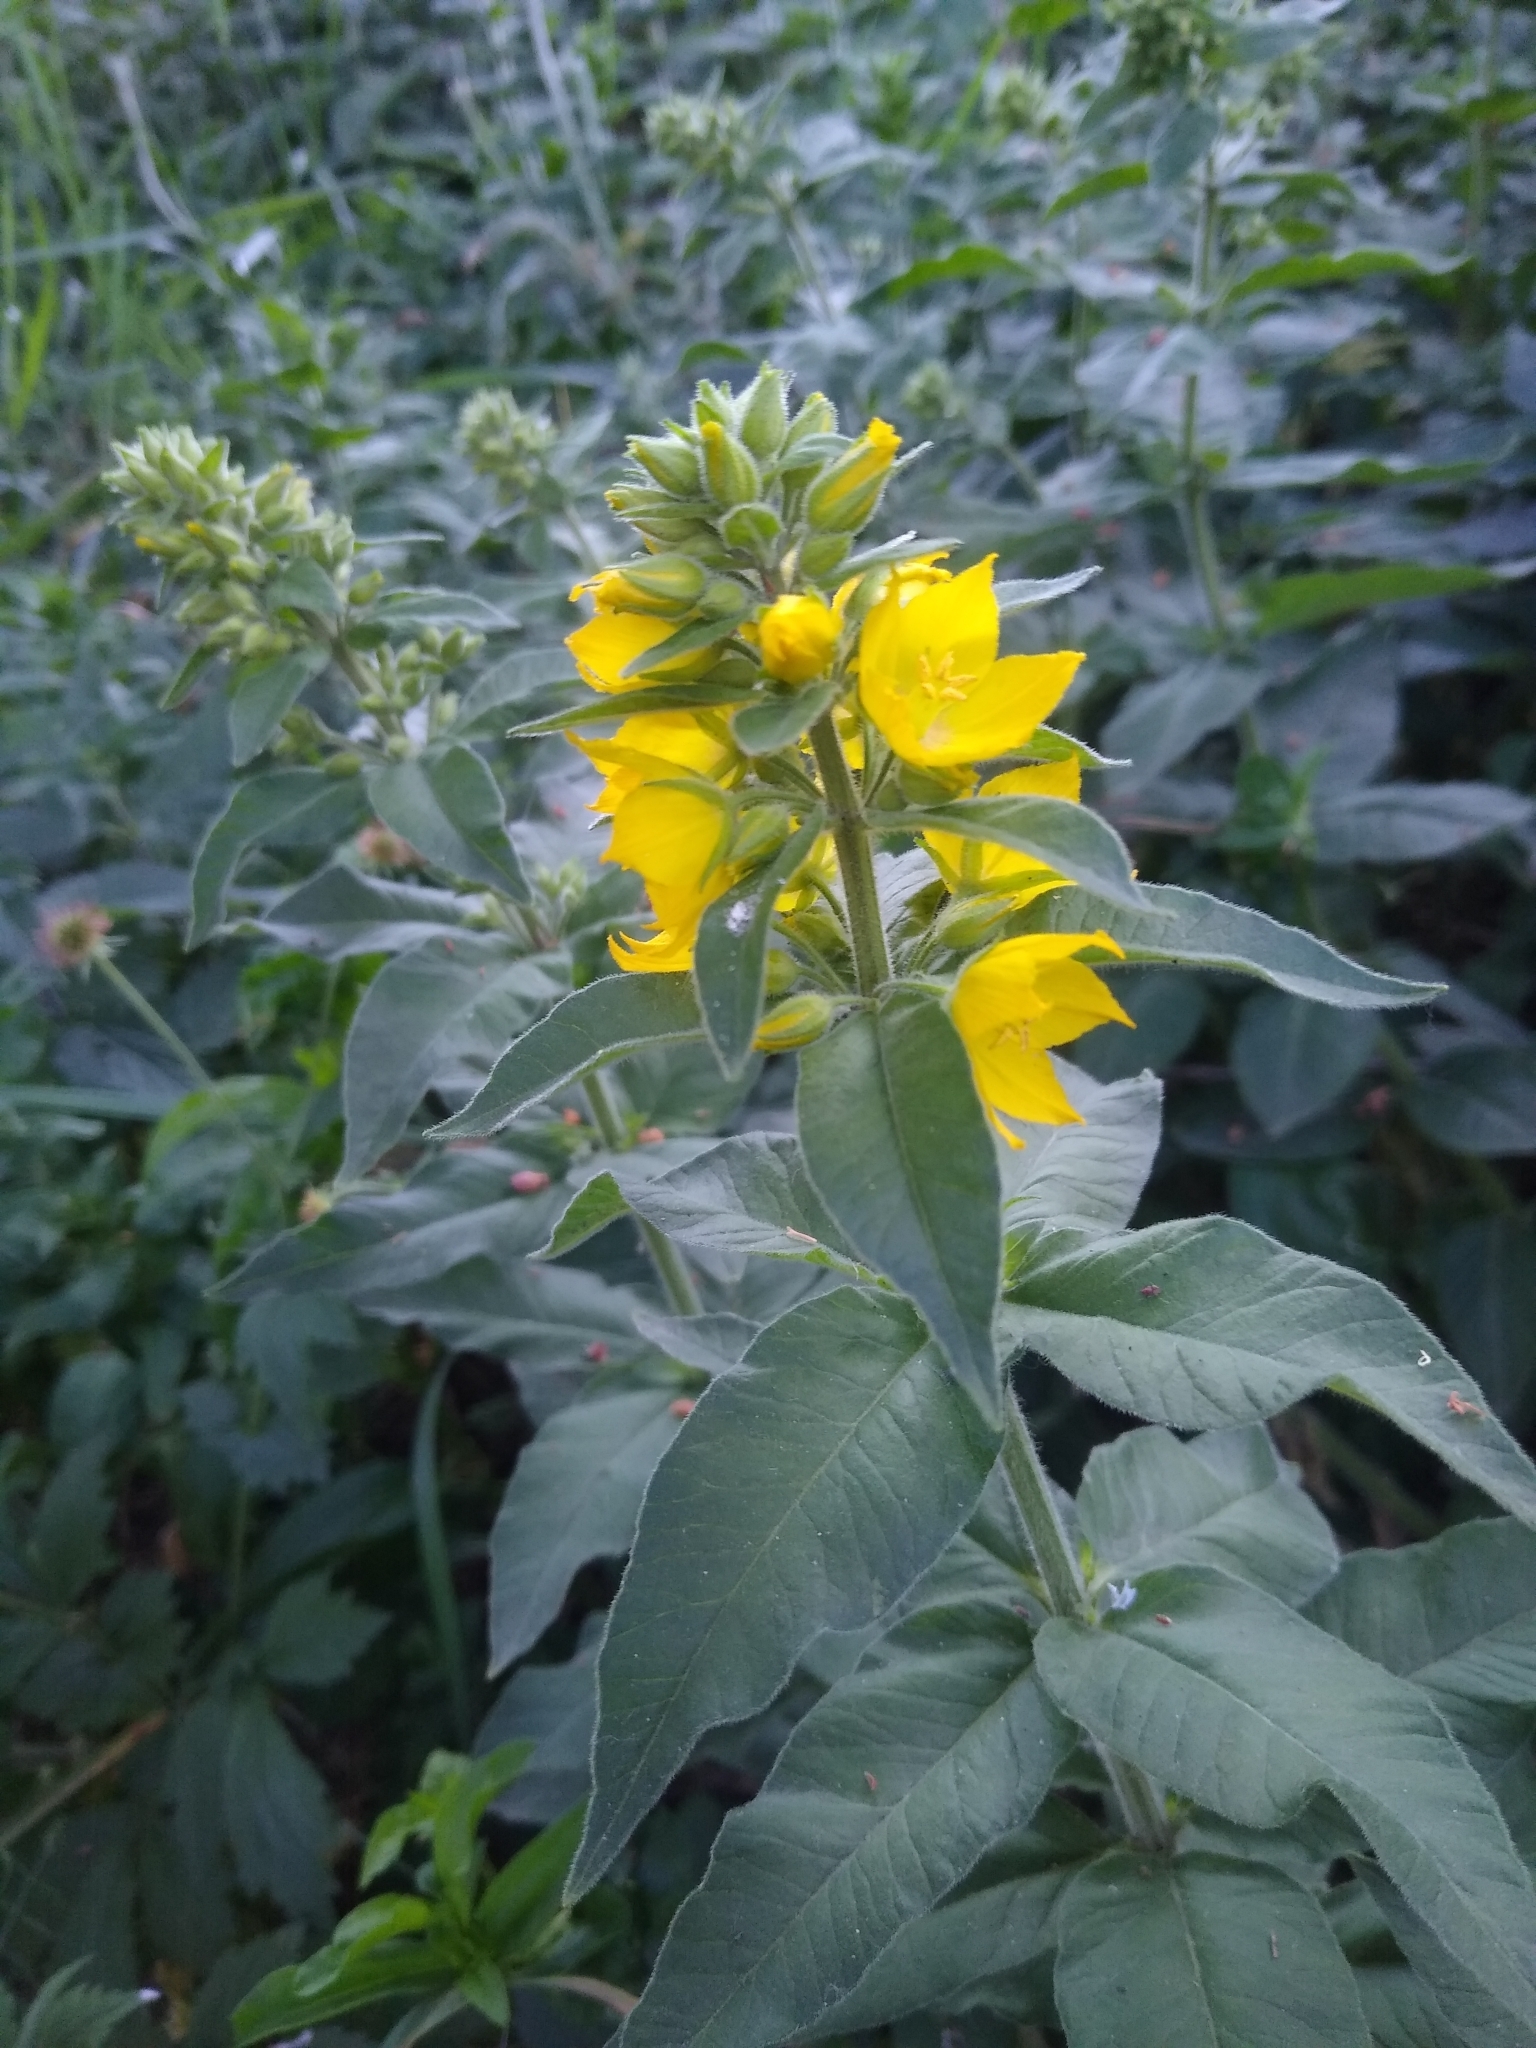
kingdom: Plantae
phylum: Tracheophyta
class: Magnoliopsida
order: Ericales
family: Primulaceae
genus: Lysimachia
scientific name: Lysimachia punctata
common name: Dotted loosestrife
